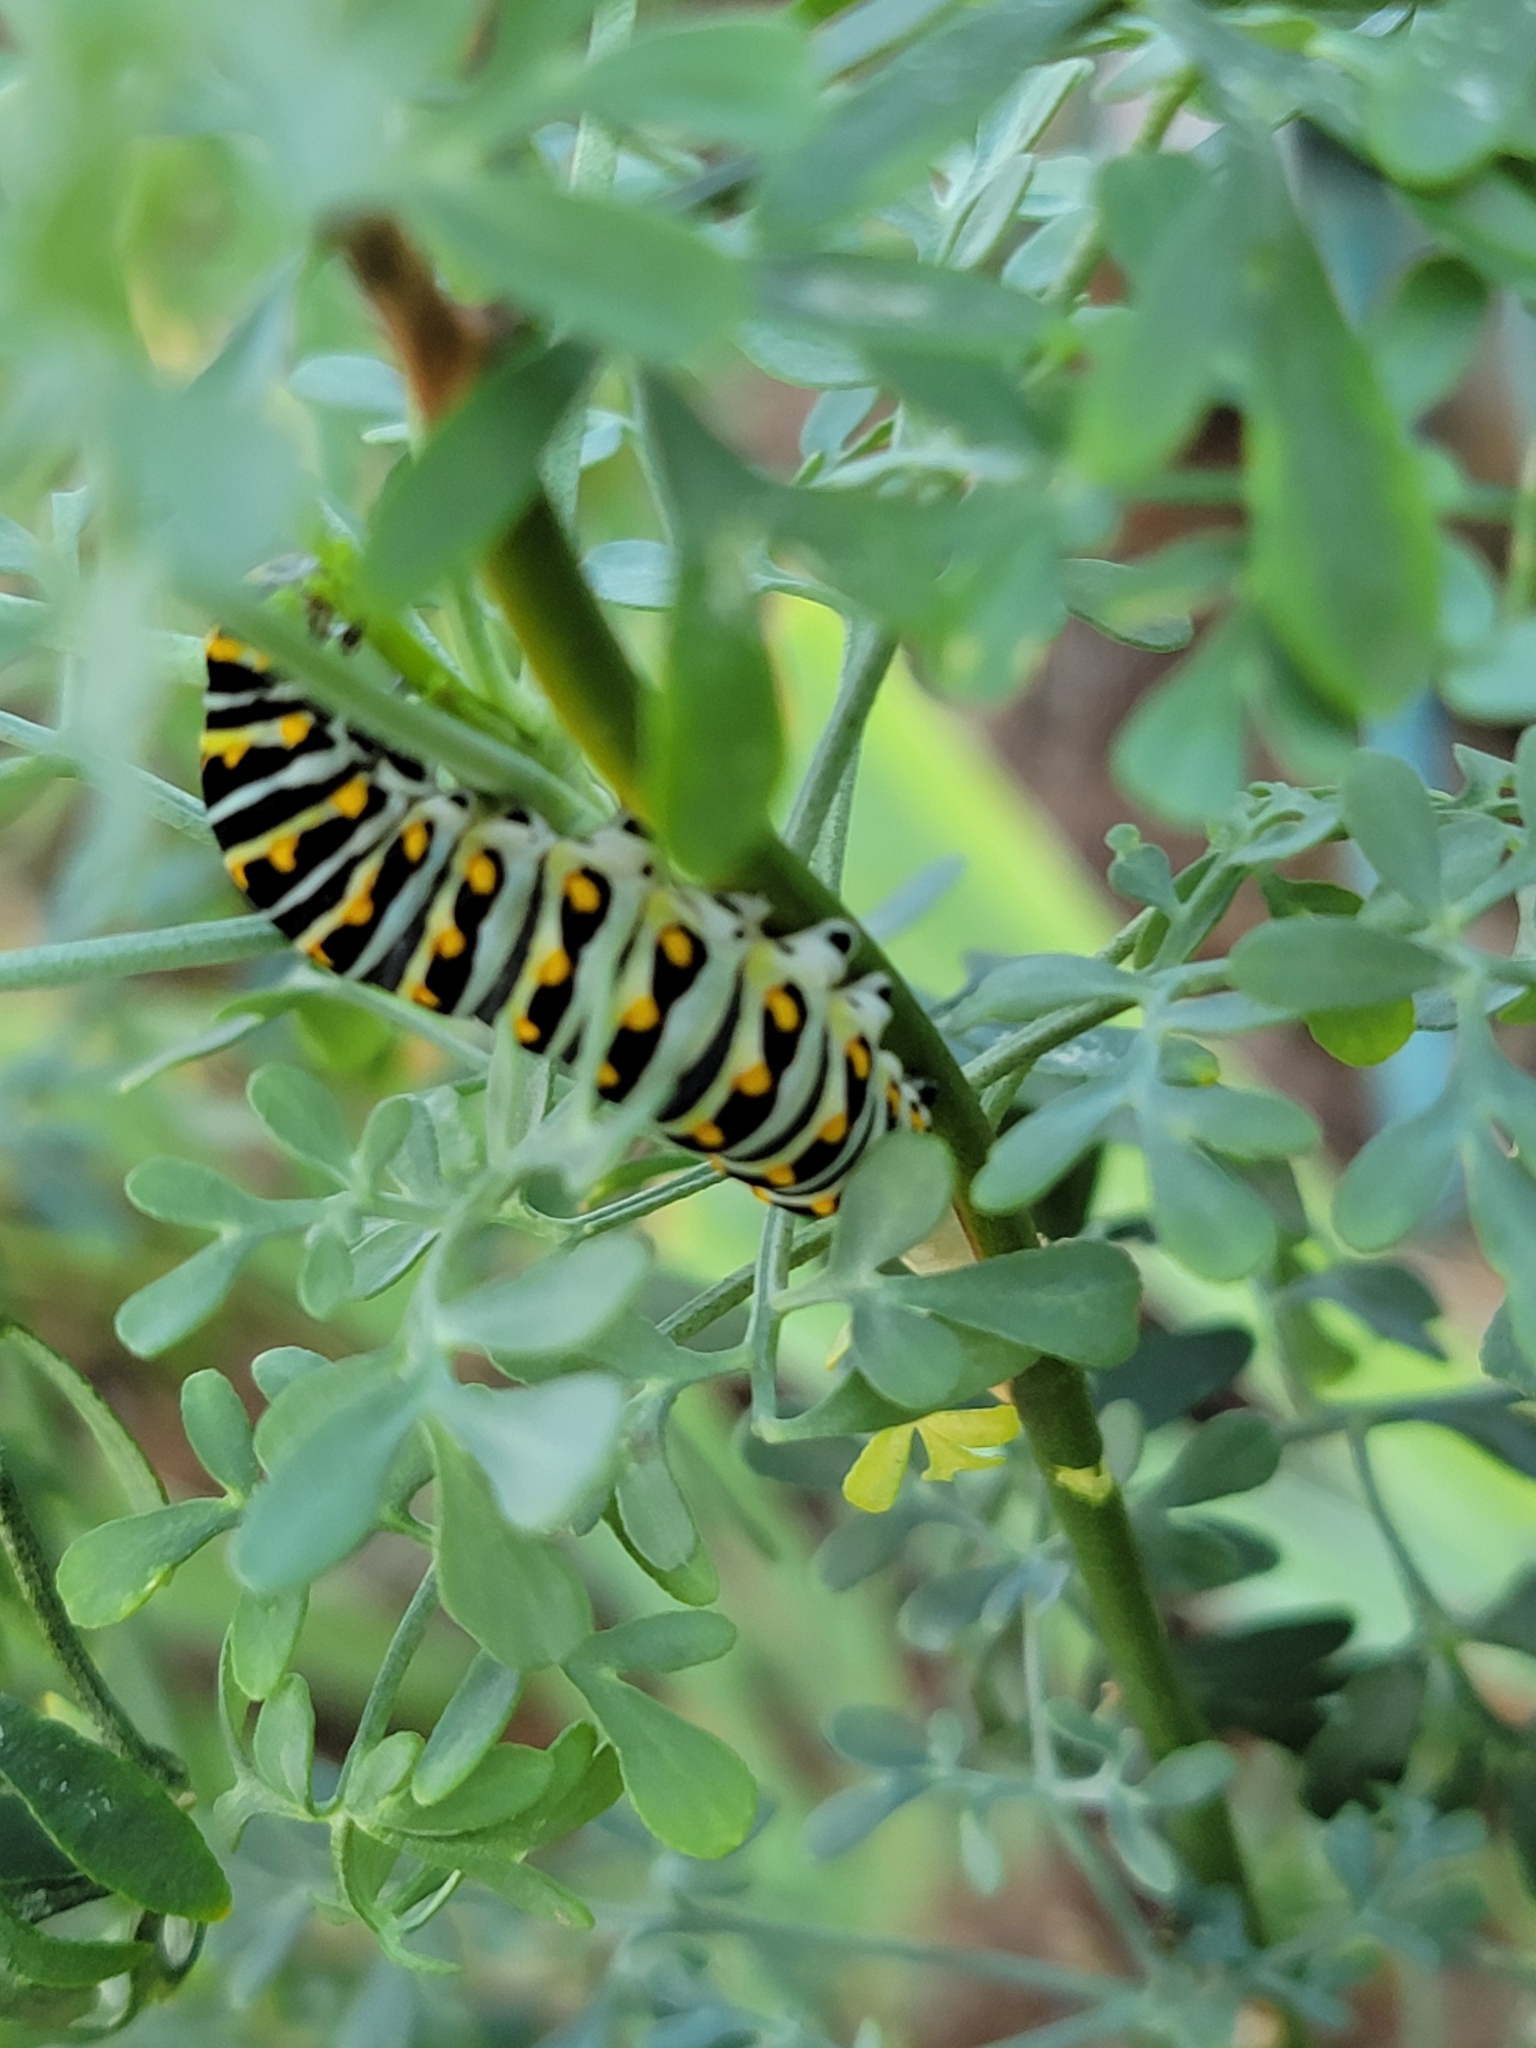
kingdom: Animalia
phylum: Arthropoda
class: Insecta
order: Lepidoptera
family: Papilionidae
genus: Papilio
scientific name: Papilio polyxenes
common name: Black swallowtail
